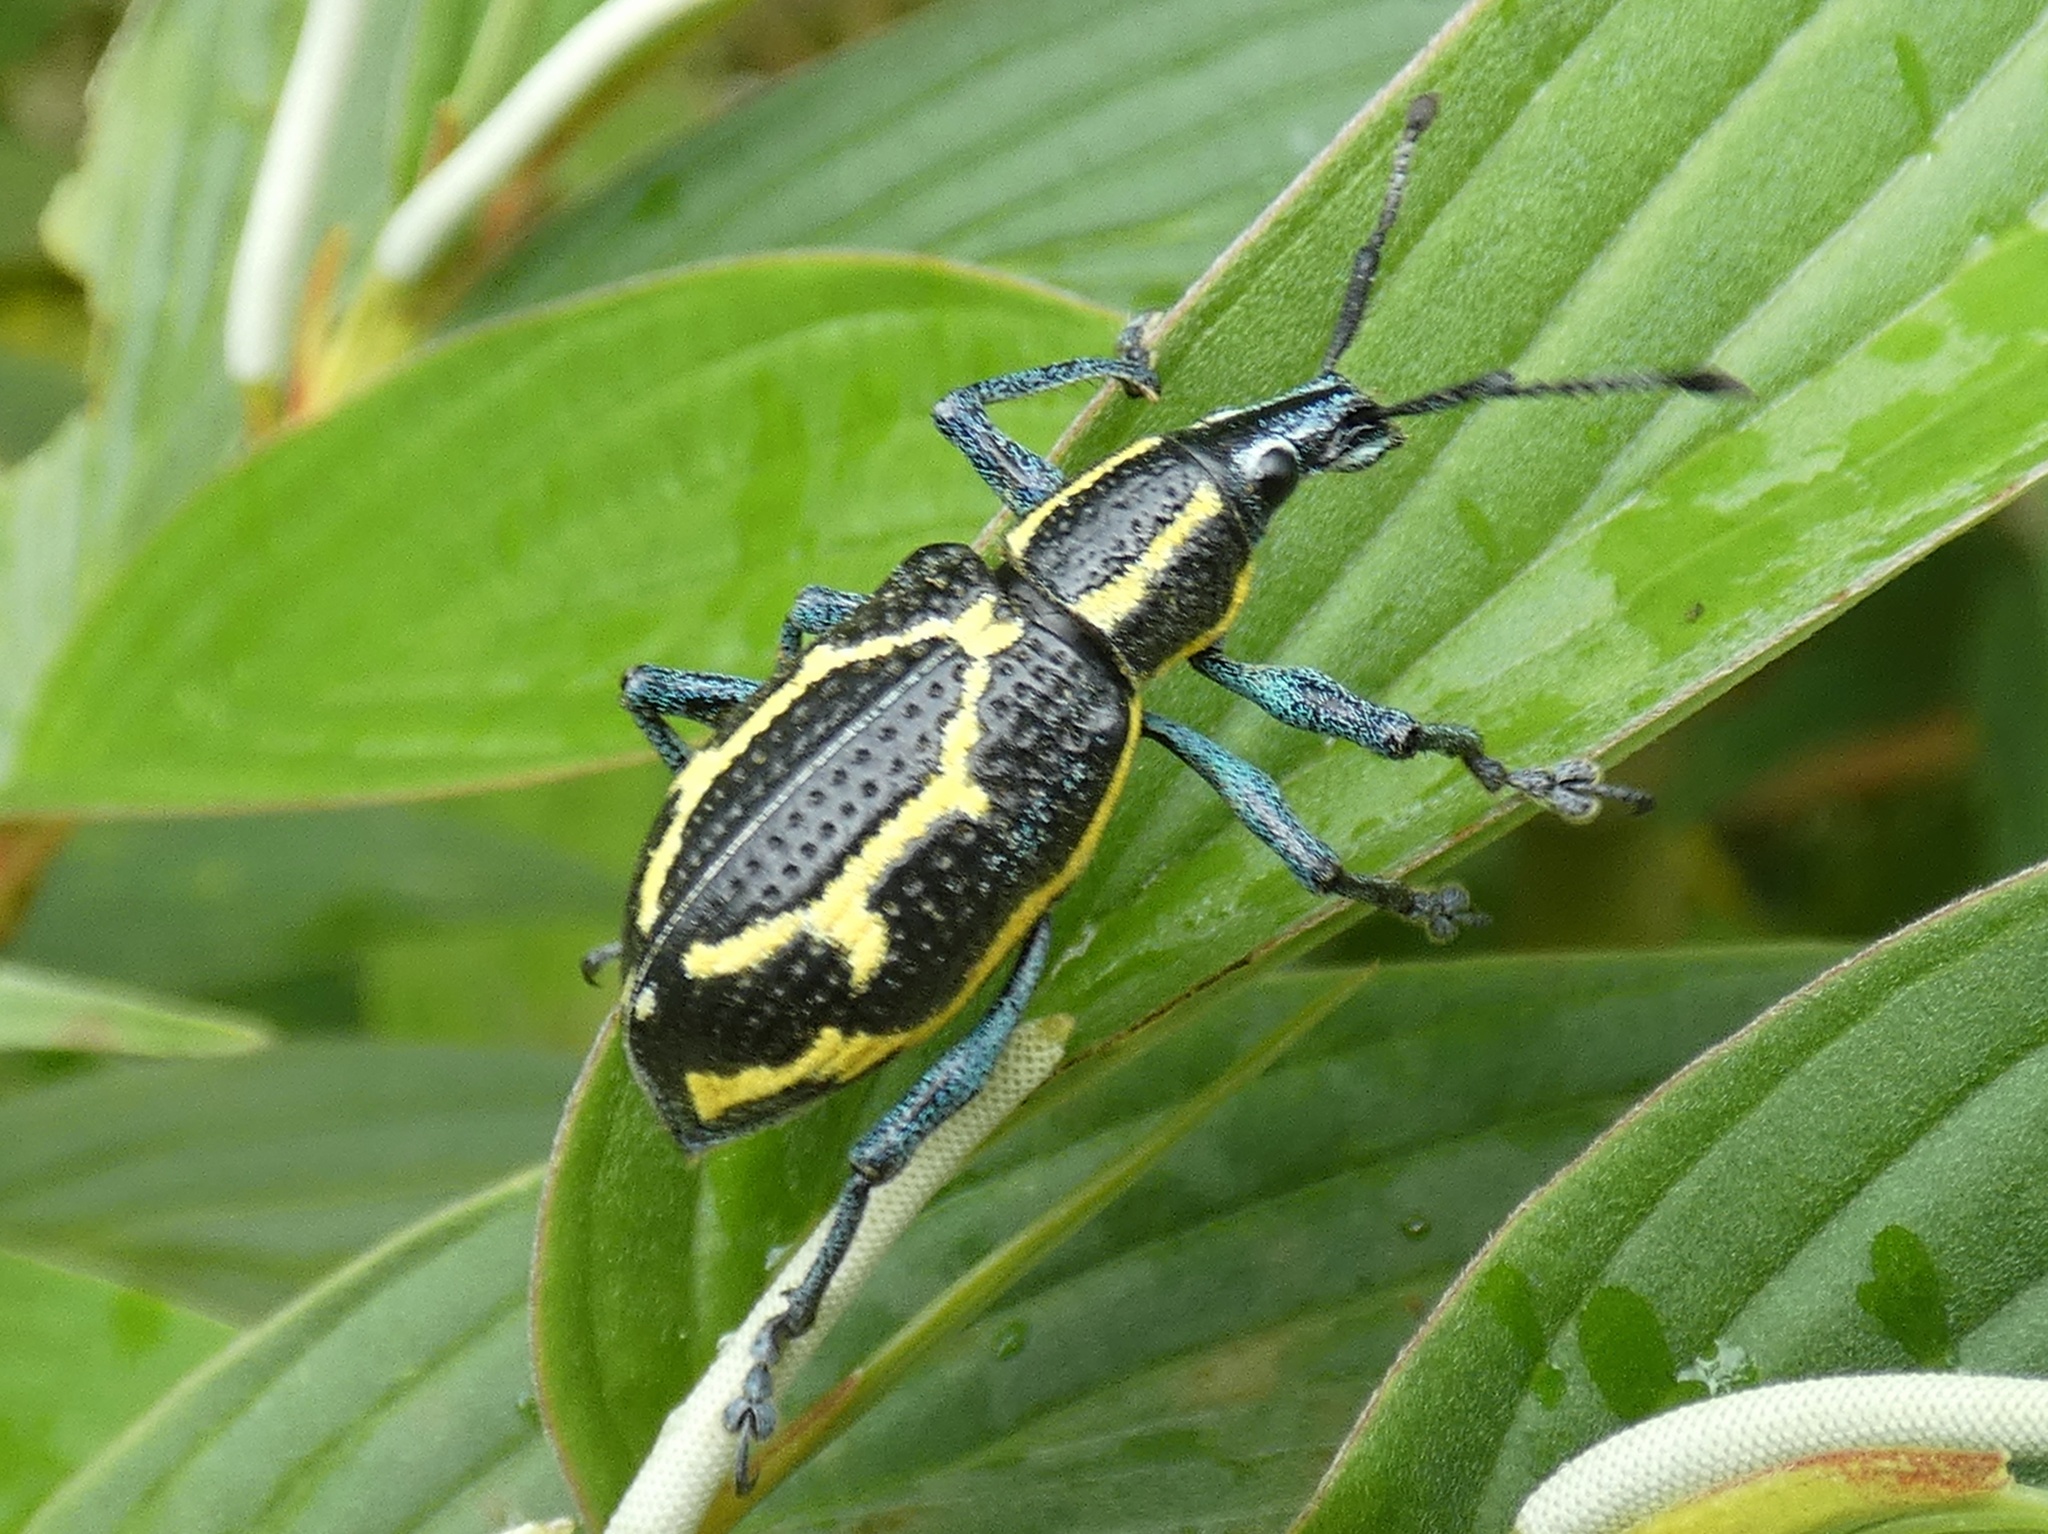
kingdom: Animalia
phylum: Arthropoda
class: Insecta
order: Coleoptera
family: Curculionidae
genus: Exophthalmus
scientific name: Exophthalmus nicaraguensis
